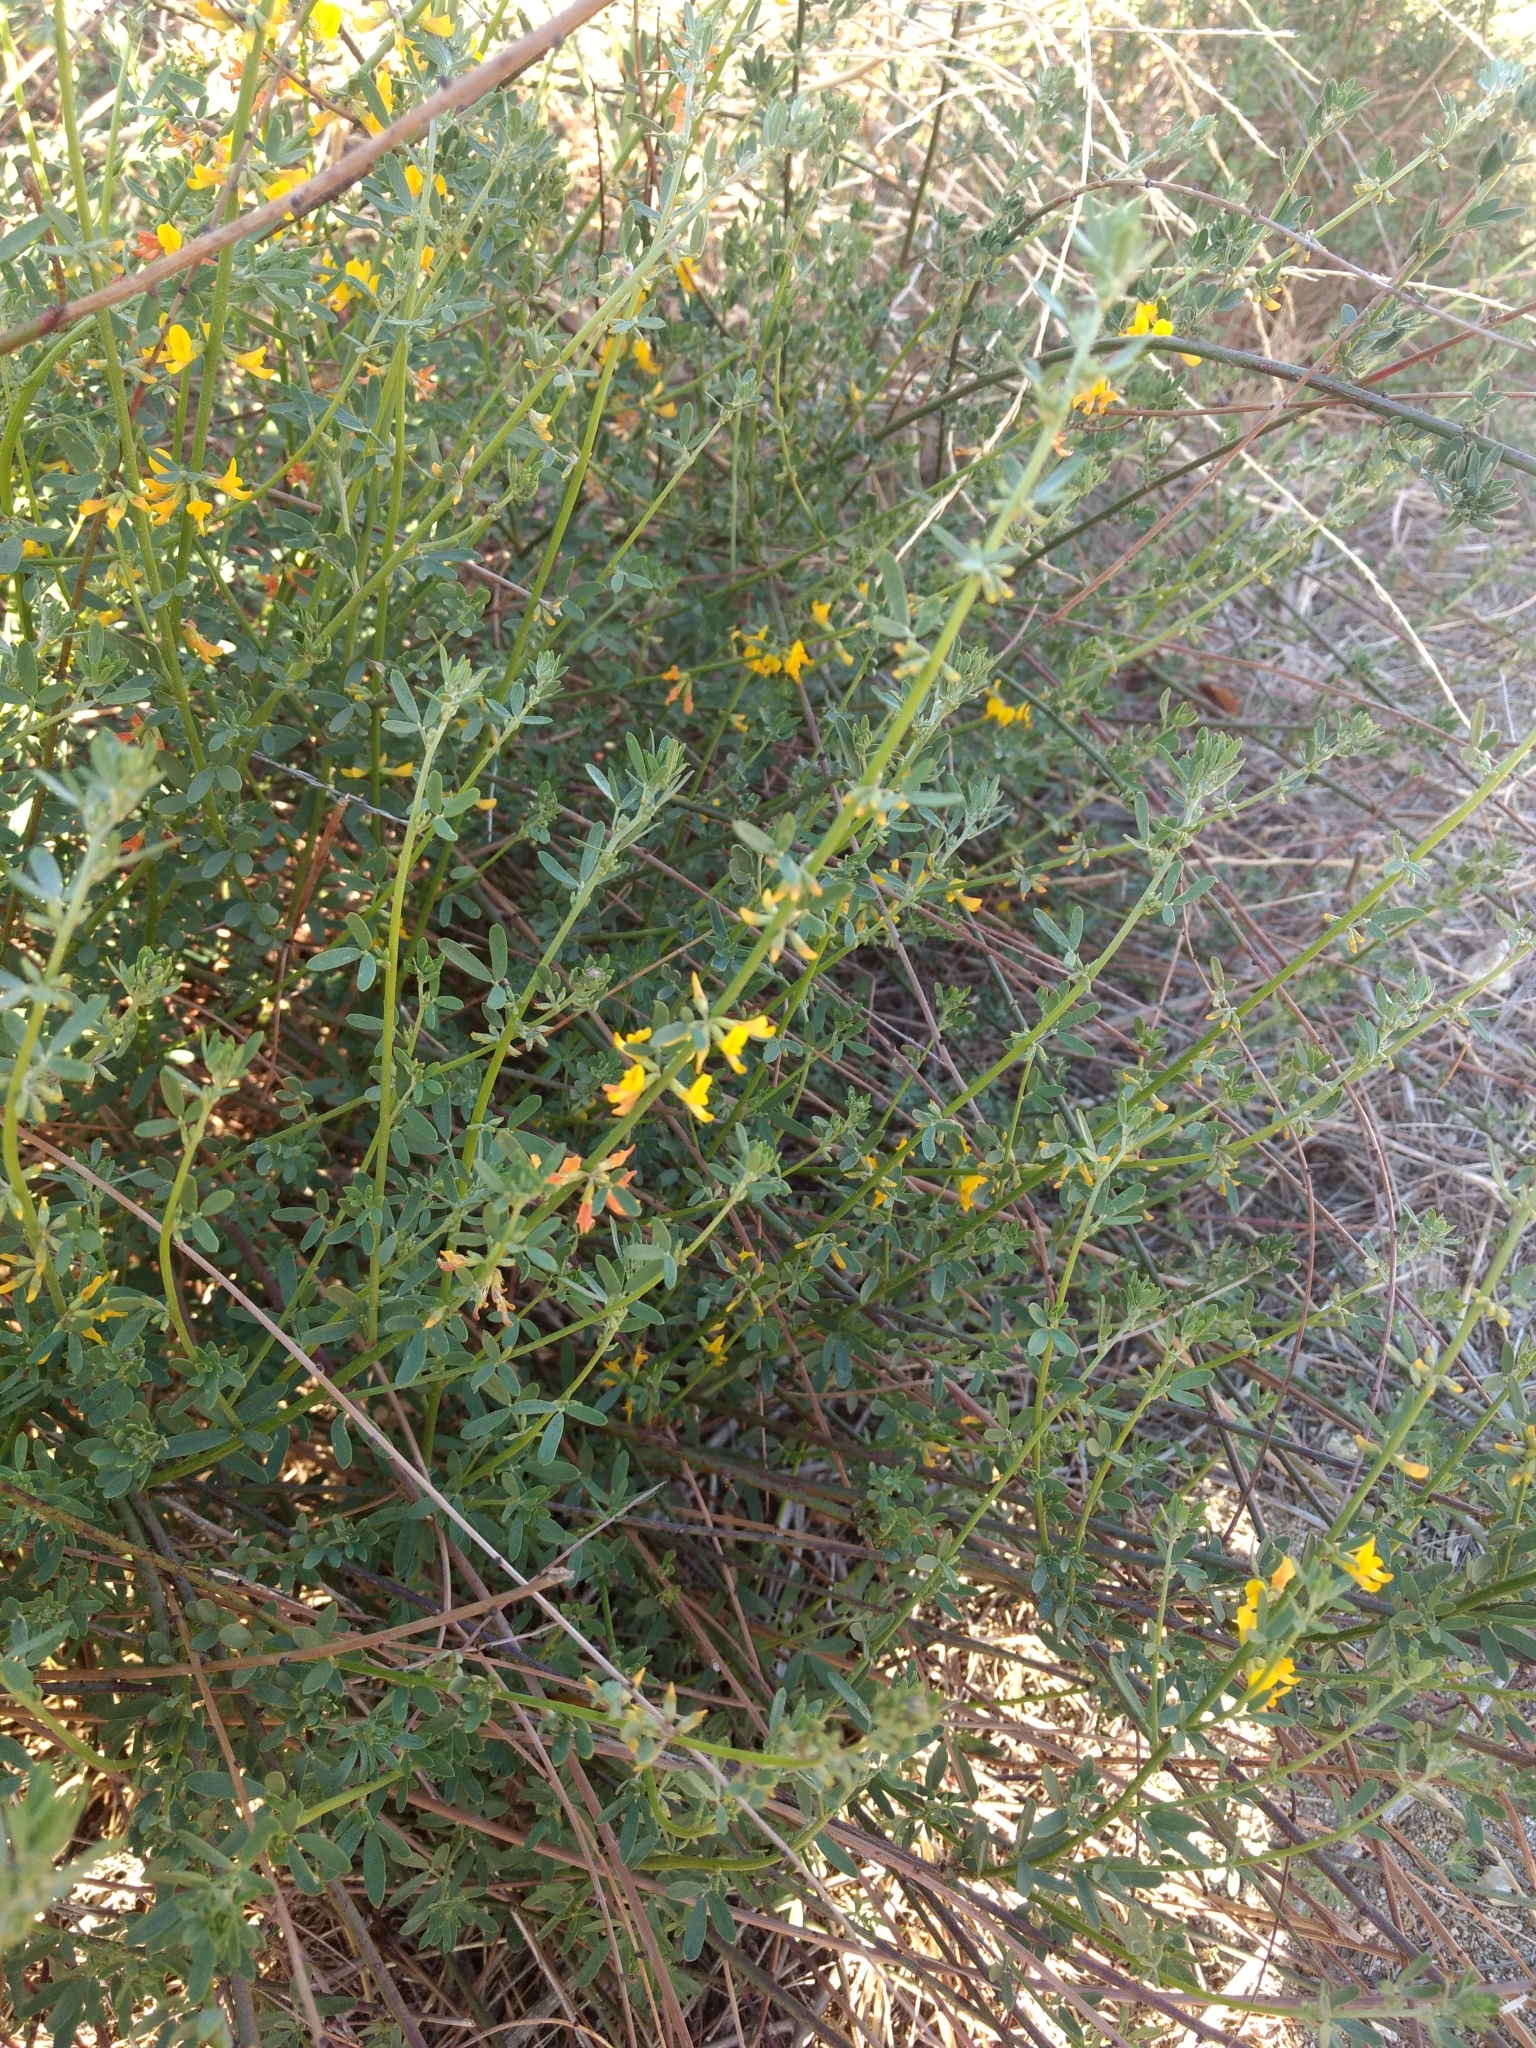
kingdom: Plantae
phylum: Tracheophyta
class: Magnoliopsida
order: Fabales
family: Fabaceae
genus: Acmispon
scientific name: Acmispon glaber
